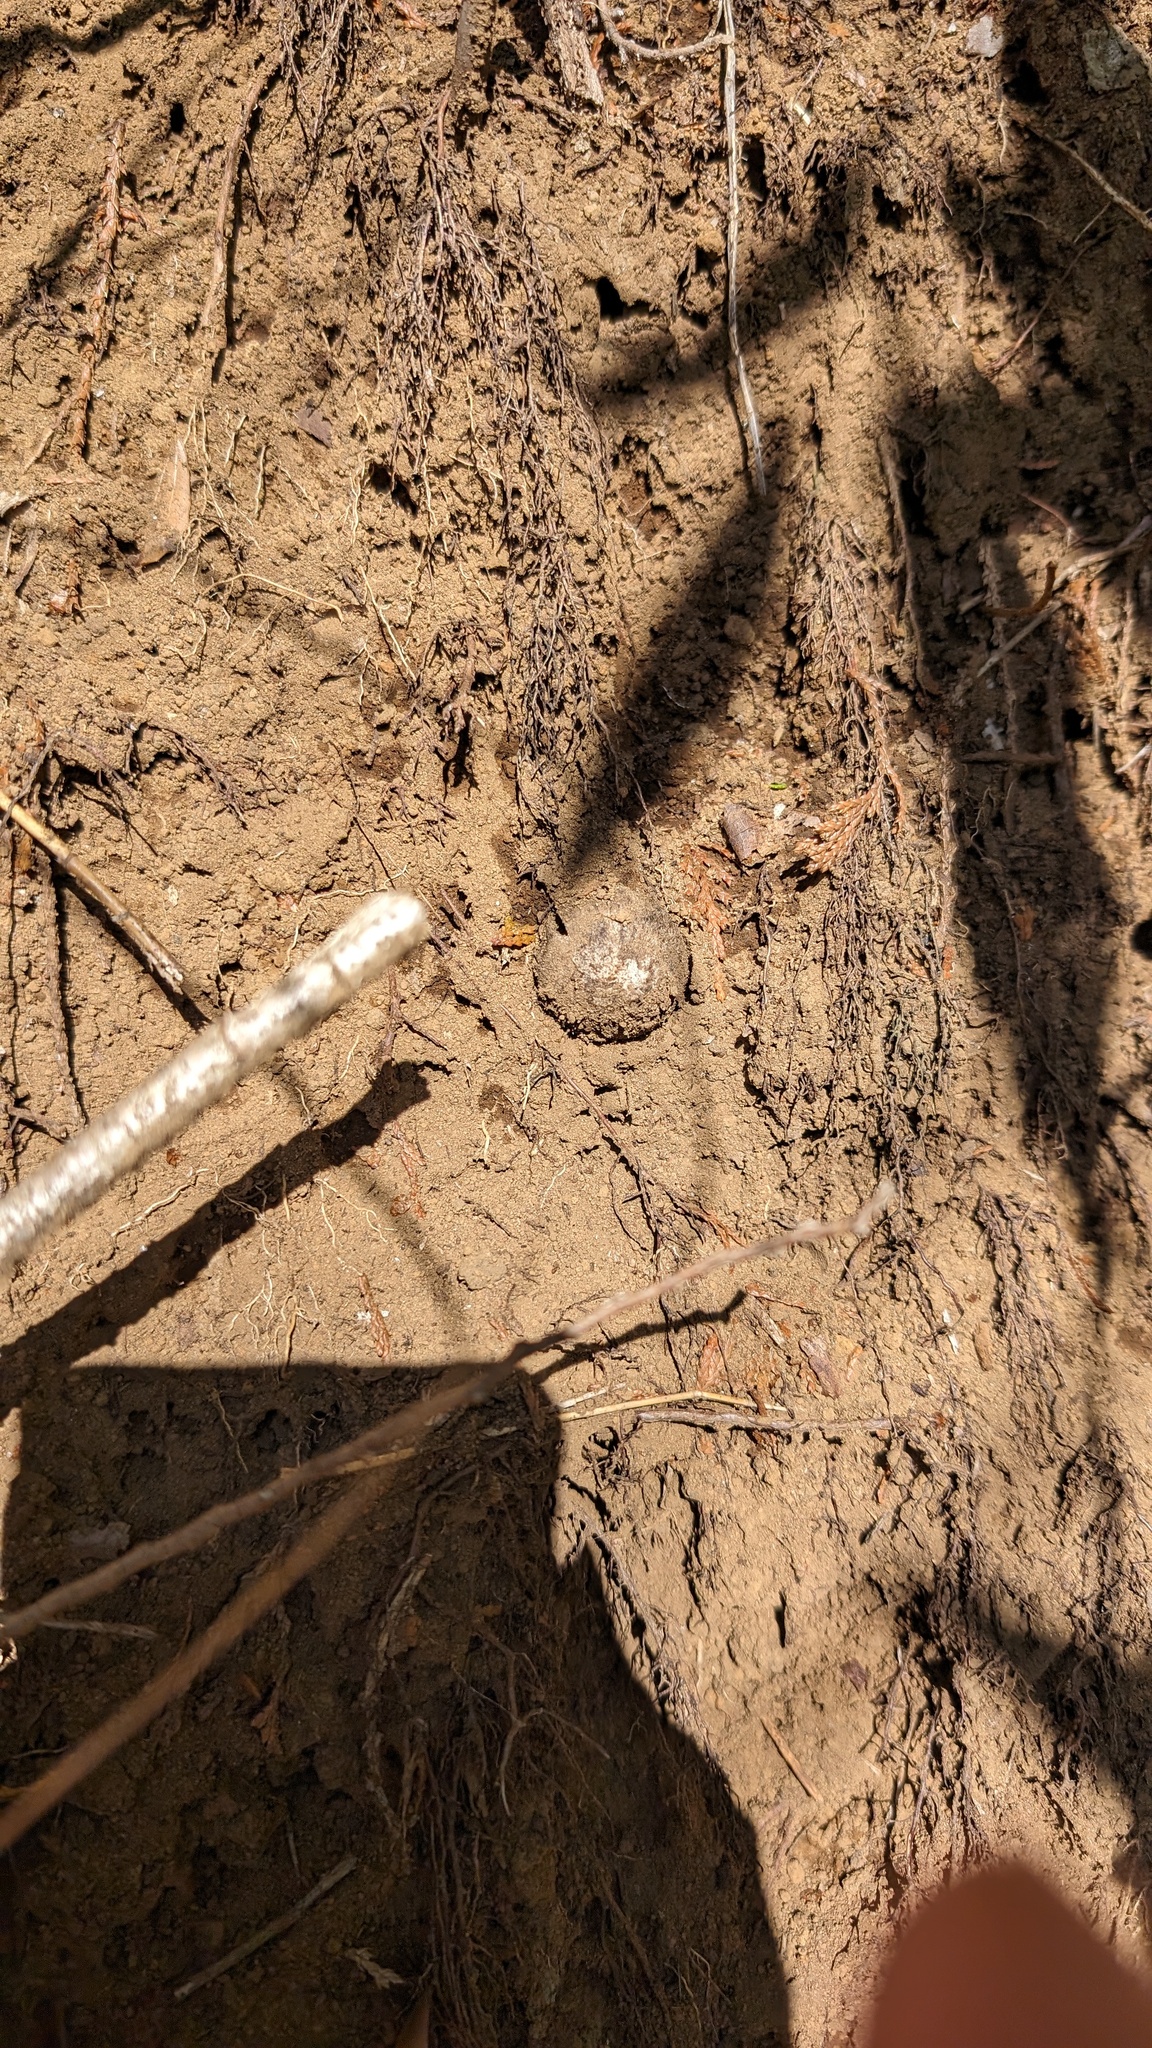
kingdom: Fungi
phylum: Basidiomycota
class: Agaricomycetes
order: Boletales
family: Diplocystidiaceae
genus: Astraeus
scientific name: Astraeus hygrometricus
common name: Barometer earthstar
